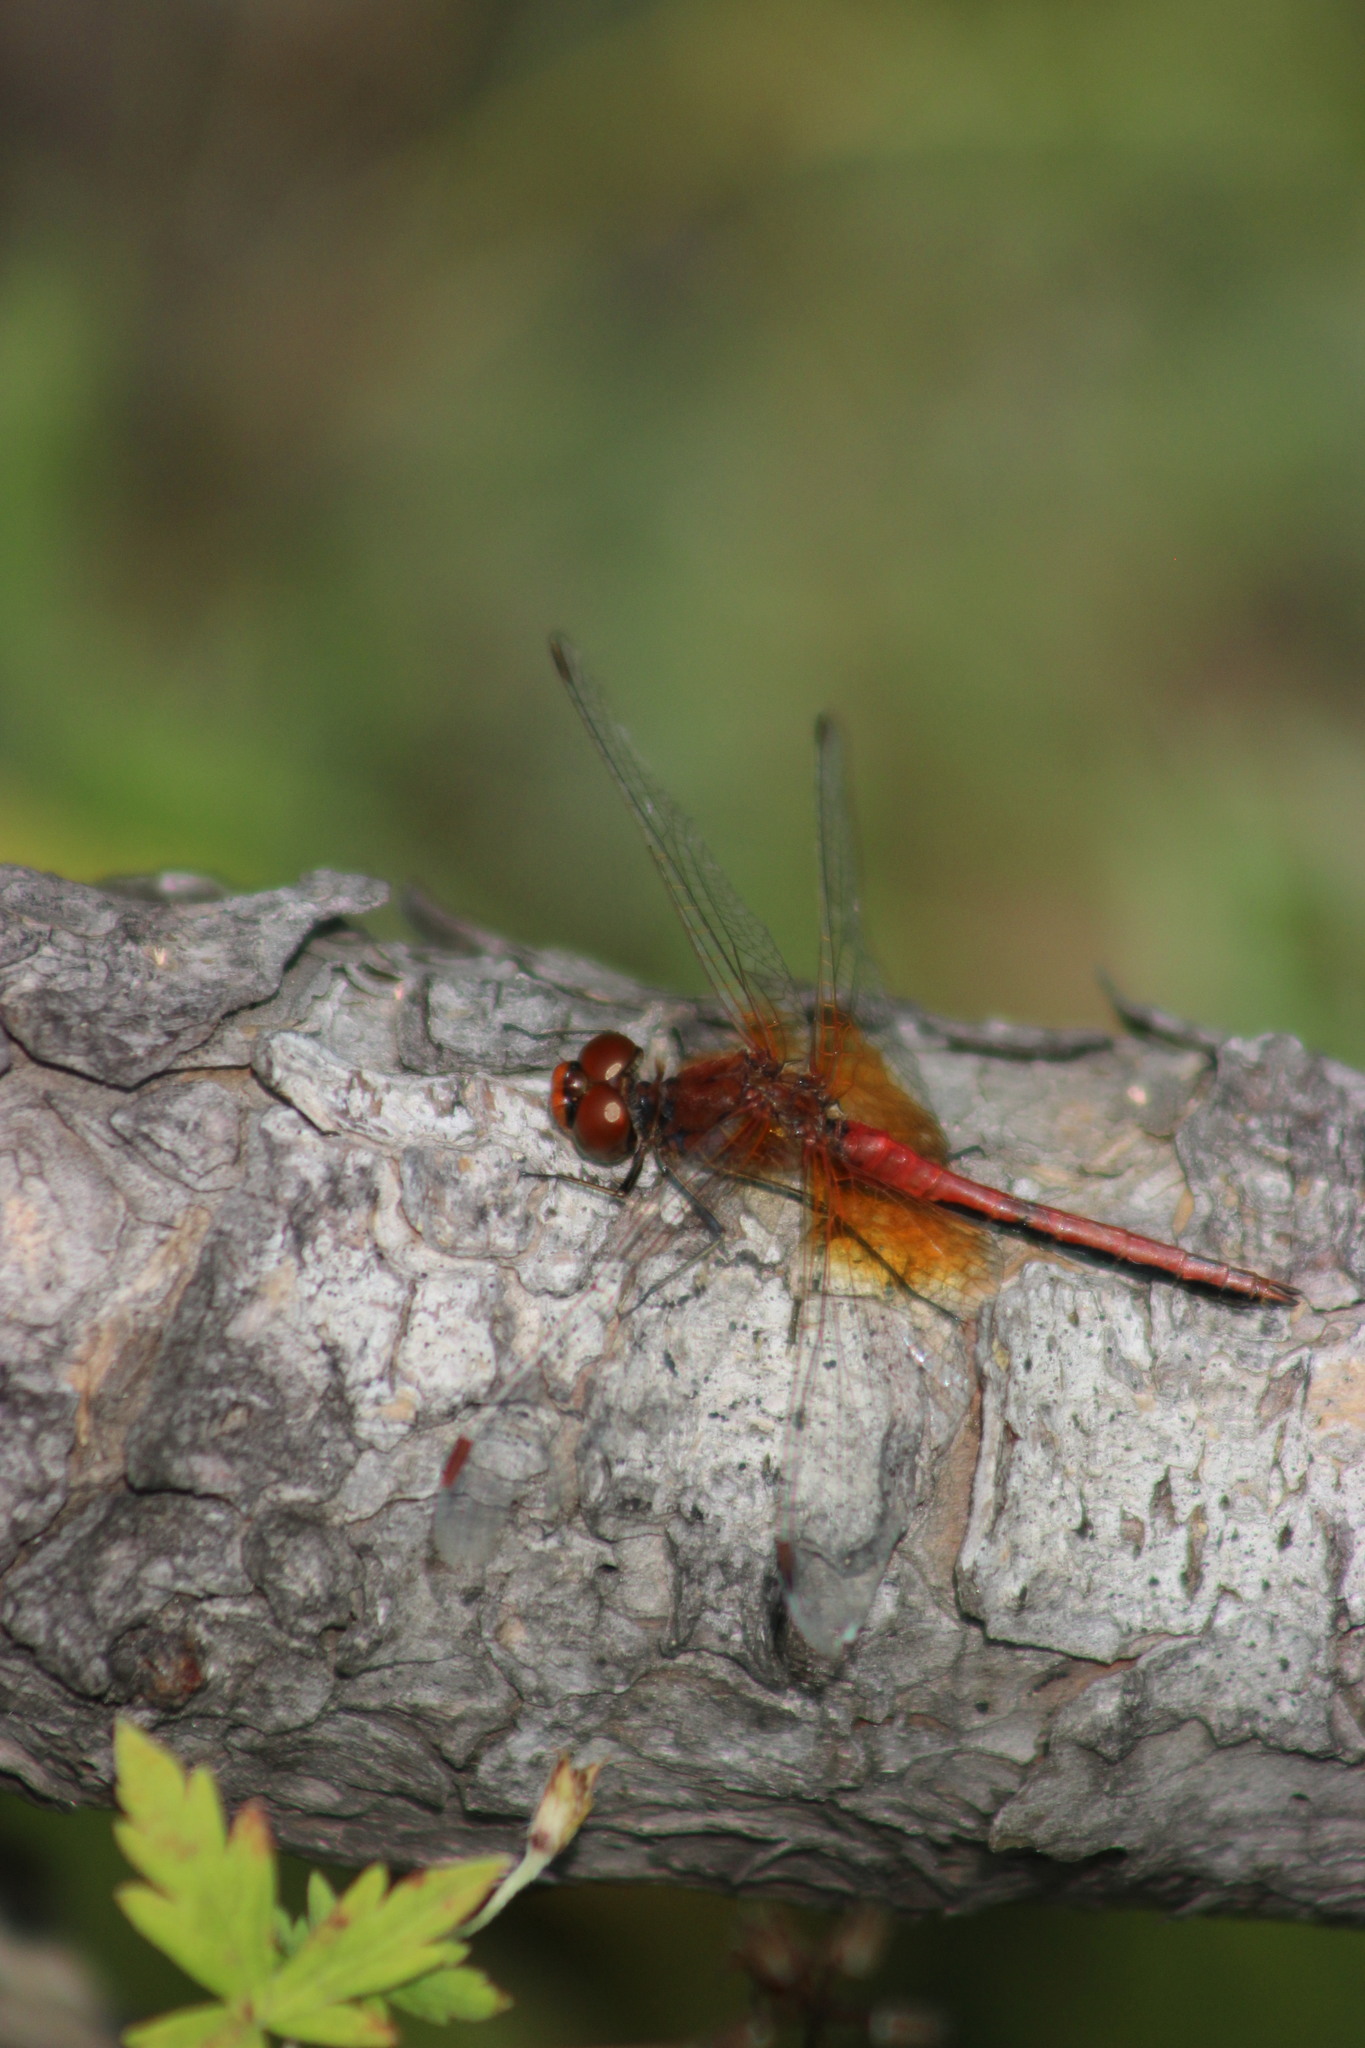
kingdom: Animalia
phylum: Arthropoda
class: Insecta
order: Odonata
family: Libellulidae
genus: Sympetrum
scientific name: Sympetrum flaveolum
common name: Yellow-winged darter
